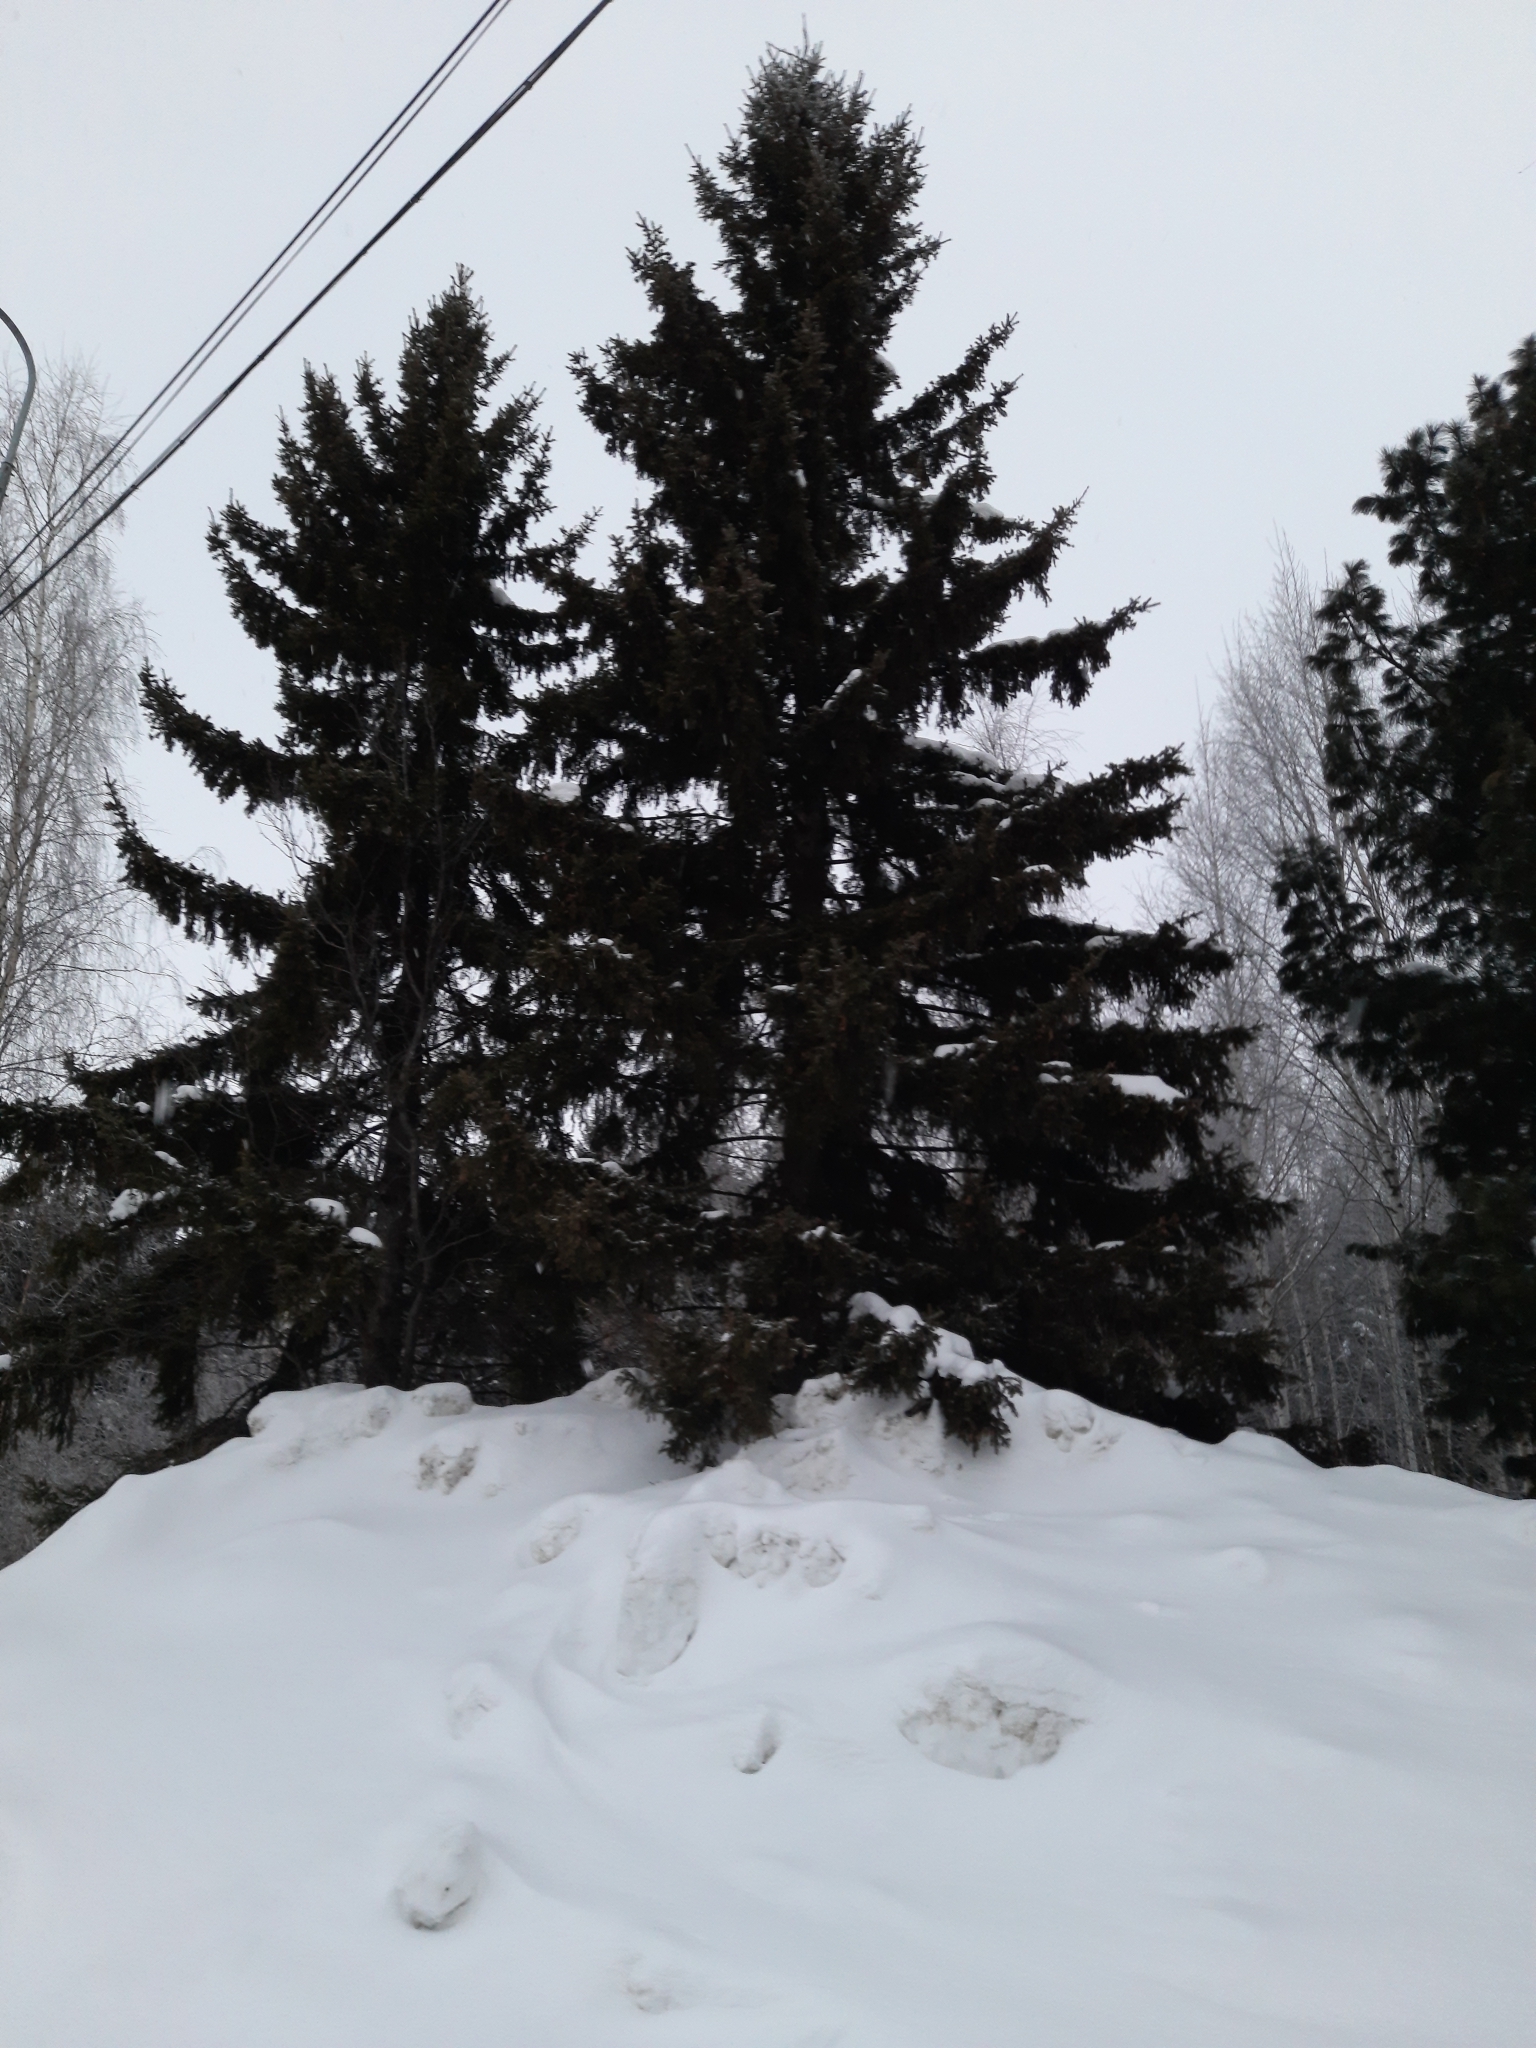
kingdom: Plantae
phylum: Tracheophyta
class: Pinopsida
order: Pinales
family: Pinaceae
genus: Picea
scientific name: Picea obovata
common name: Siberian spruce
